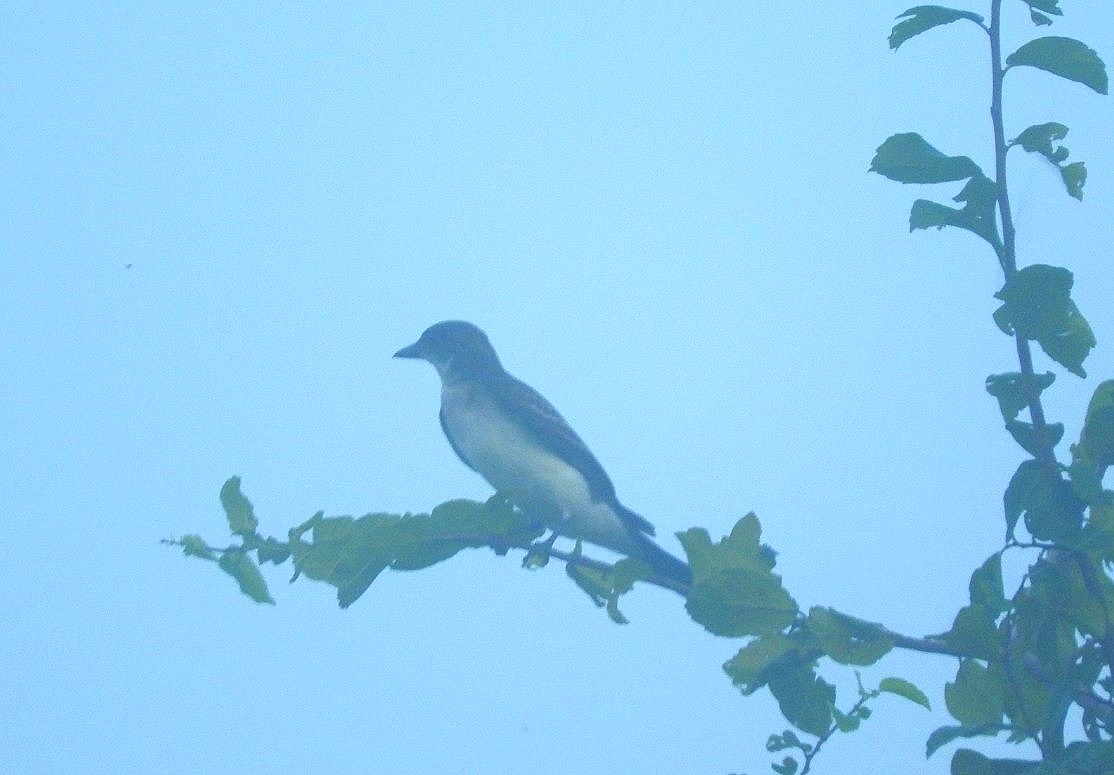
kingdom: Animalia
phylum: Chordata
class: Aves
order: Passeriformes
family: Tyrannidae
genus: Tyrannus
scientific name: Tyrannus tyrannus
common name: Eastern kingbird
